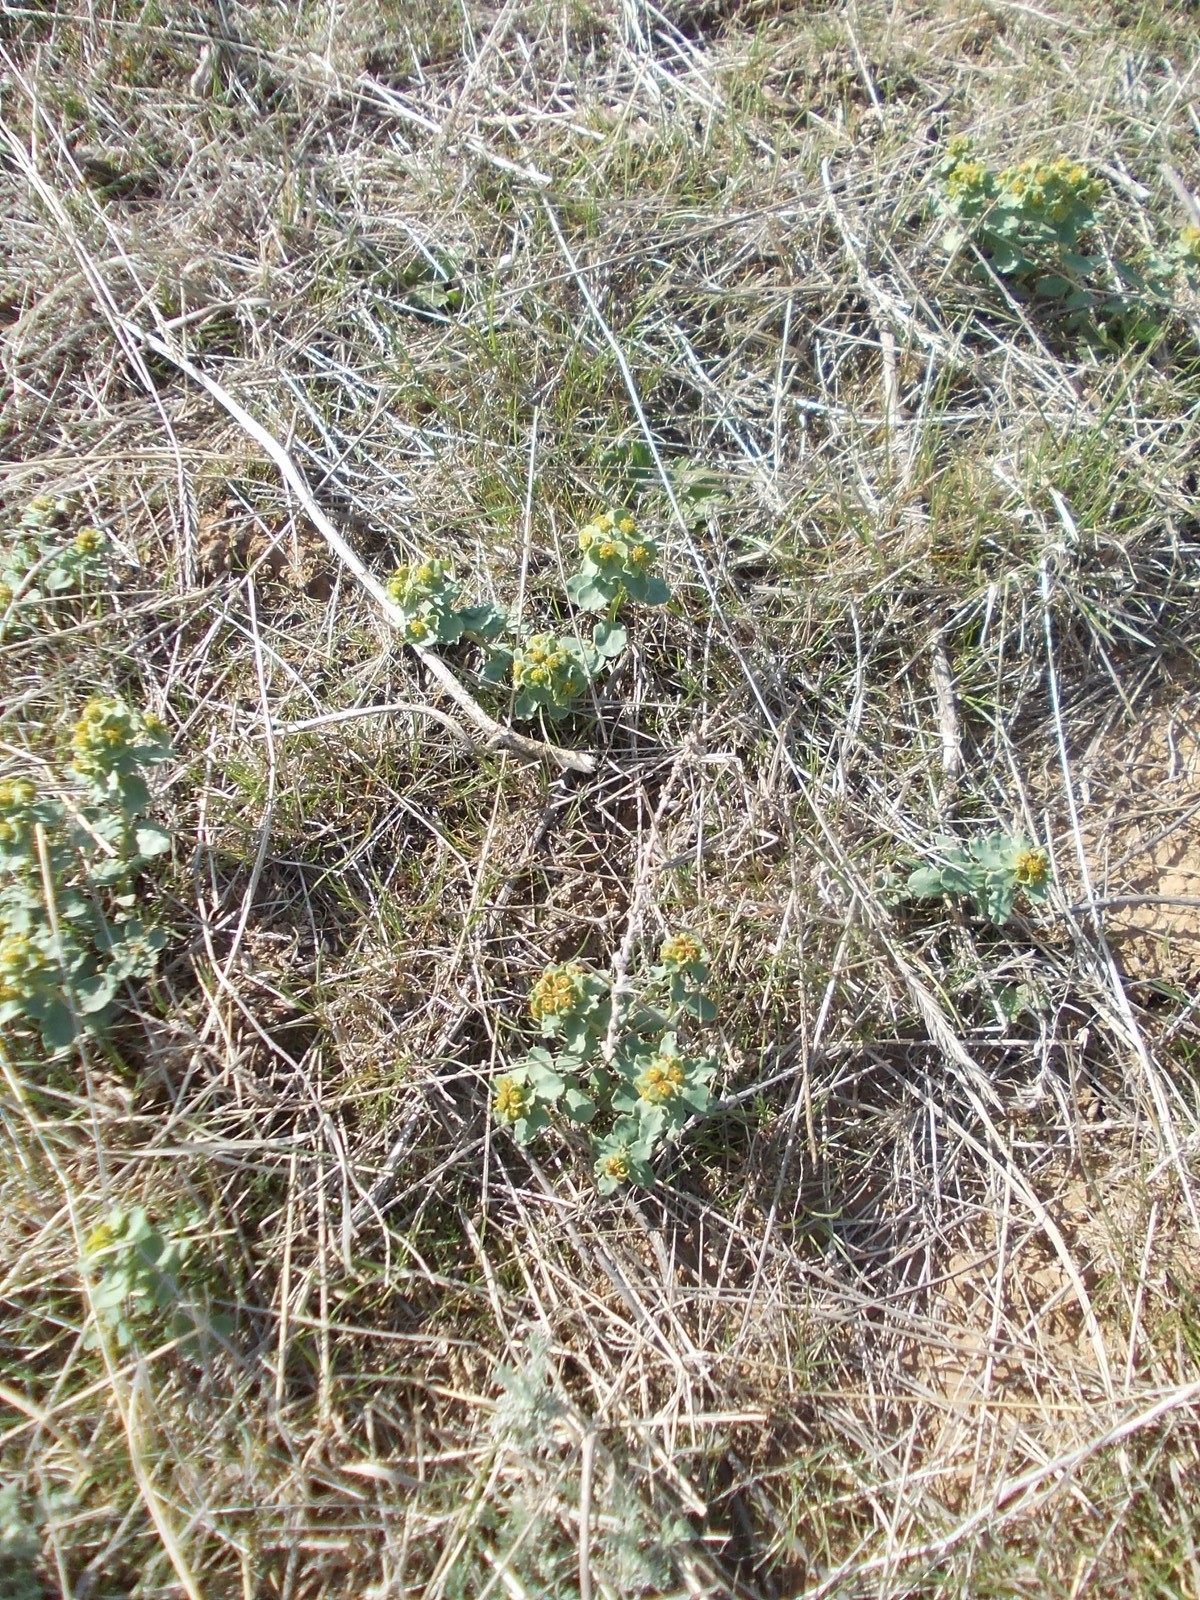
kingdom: Plantae
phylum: Tracheophyta
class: Magnoliopsida
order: Malpighiales
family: Euphorbiaceae
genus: Euphorbia
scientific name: Euphorbia undulata
